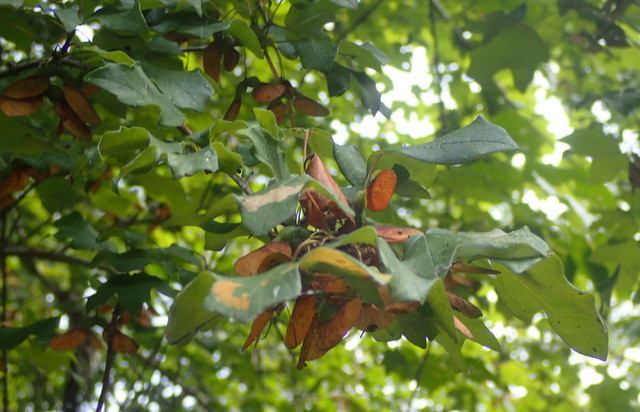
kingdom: Plantae
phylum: Tracheophyta
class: Magnoliopsida
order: Sapindales
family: Sapindaceae
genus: Acer
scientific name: Acer floridanum
